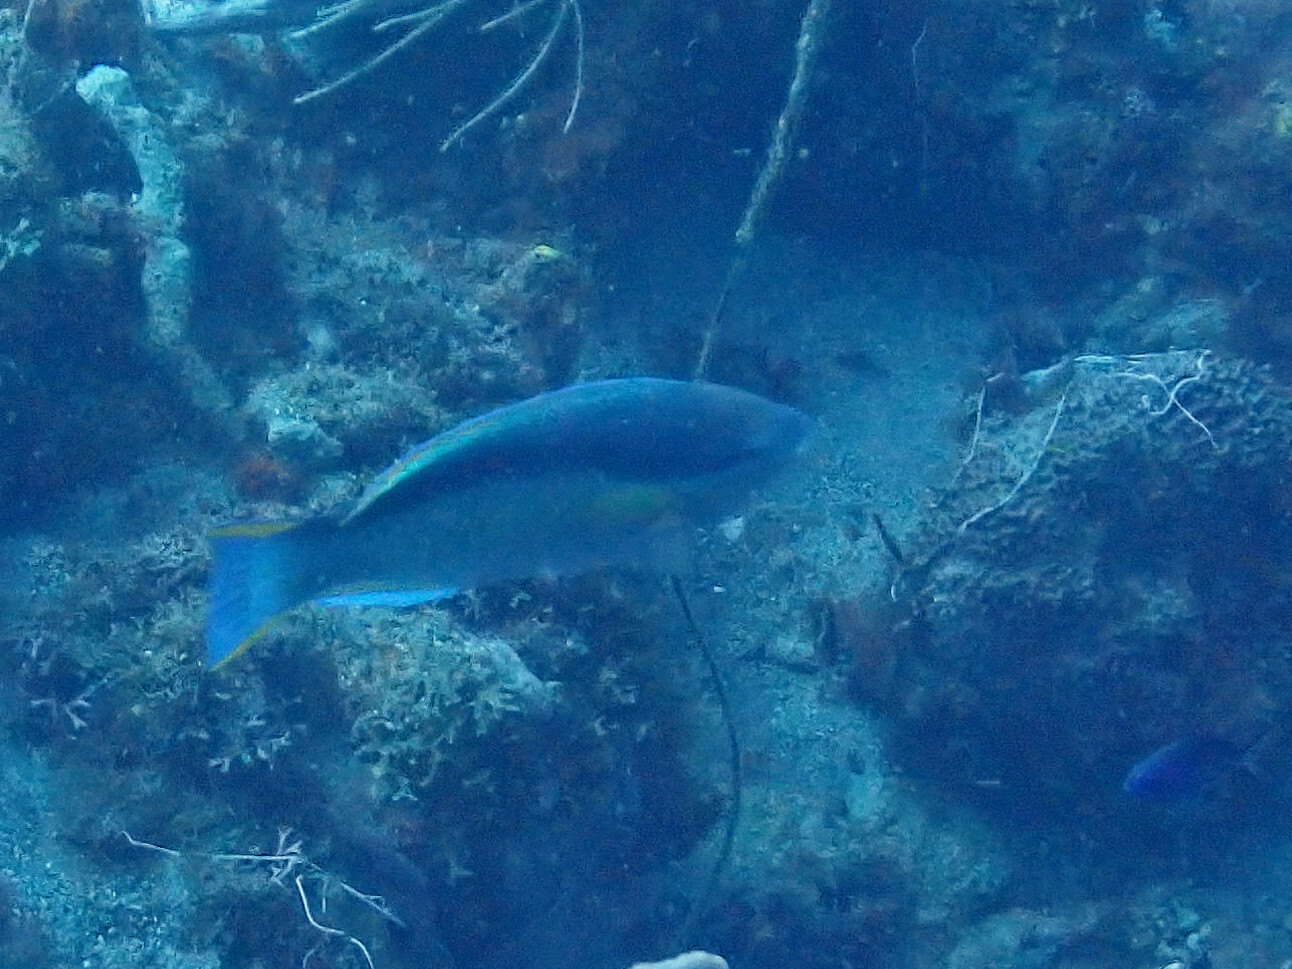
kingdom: Animalia
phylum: Chordata
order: Perciformes
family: Scaridae
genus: Scarus
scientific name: Scarus taeniopterus
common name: Princess parrotfish
